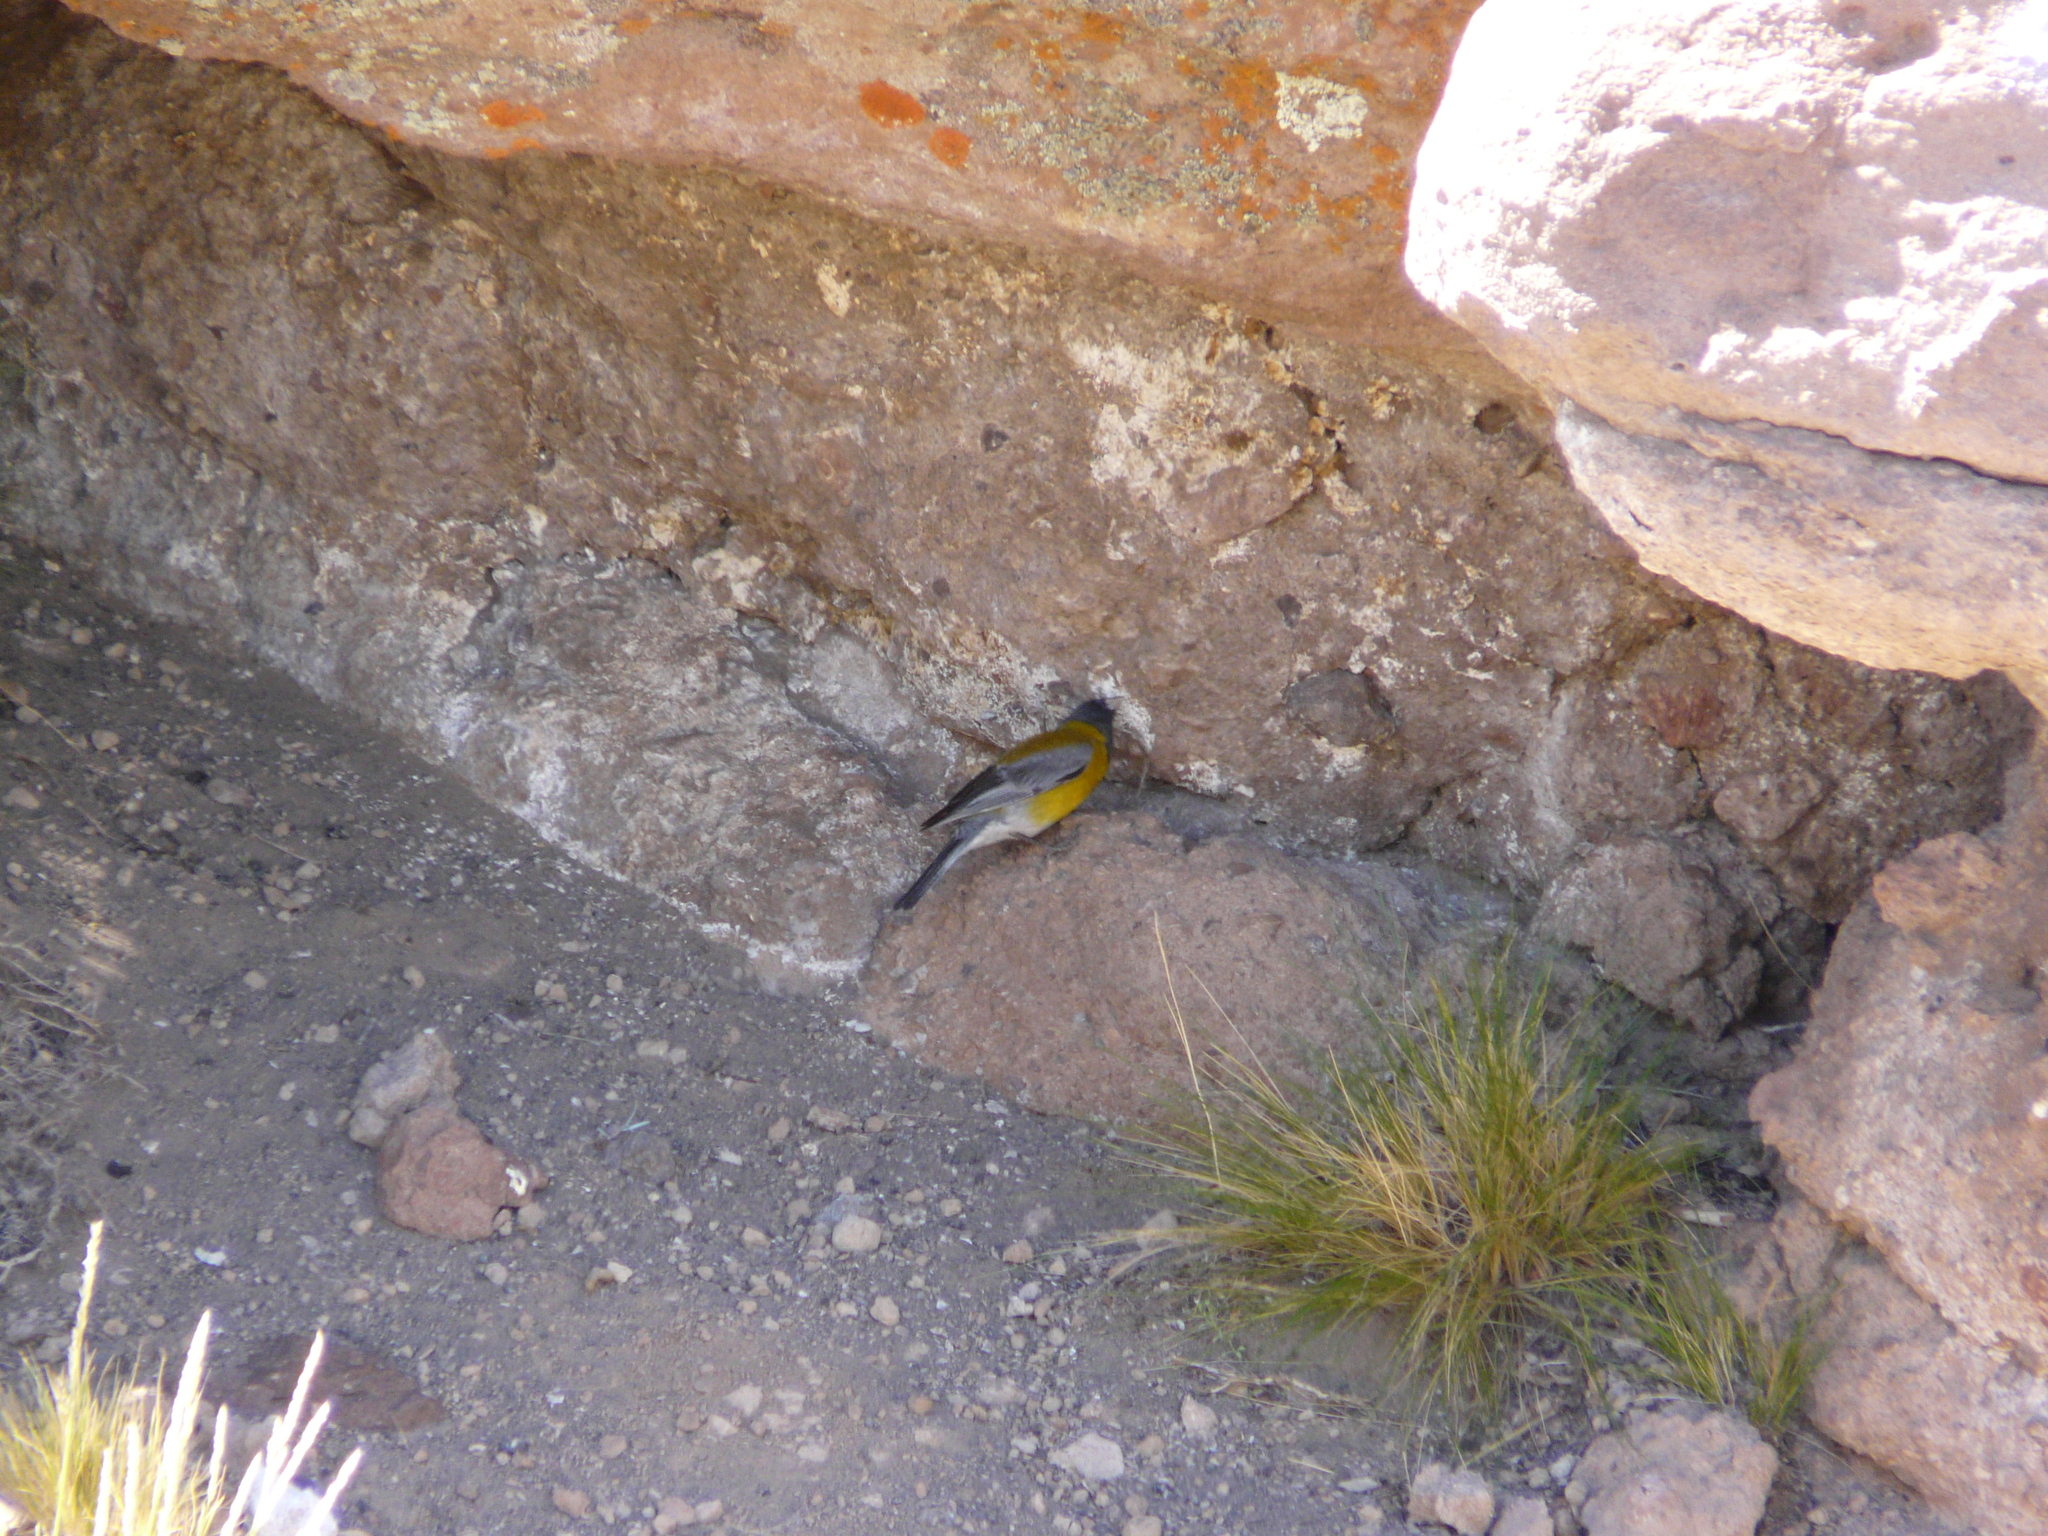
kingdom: Animalia
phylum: Chordata
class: Aves
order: Passeriformes
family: Thraupidae
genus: Phrygilus
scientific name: Phrygilus gayi
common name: Grey-hooded sierra finch
